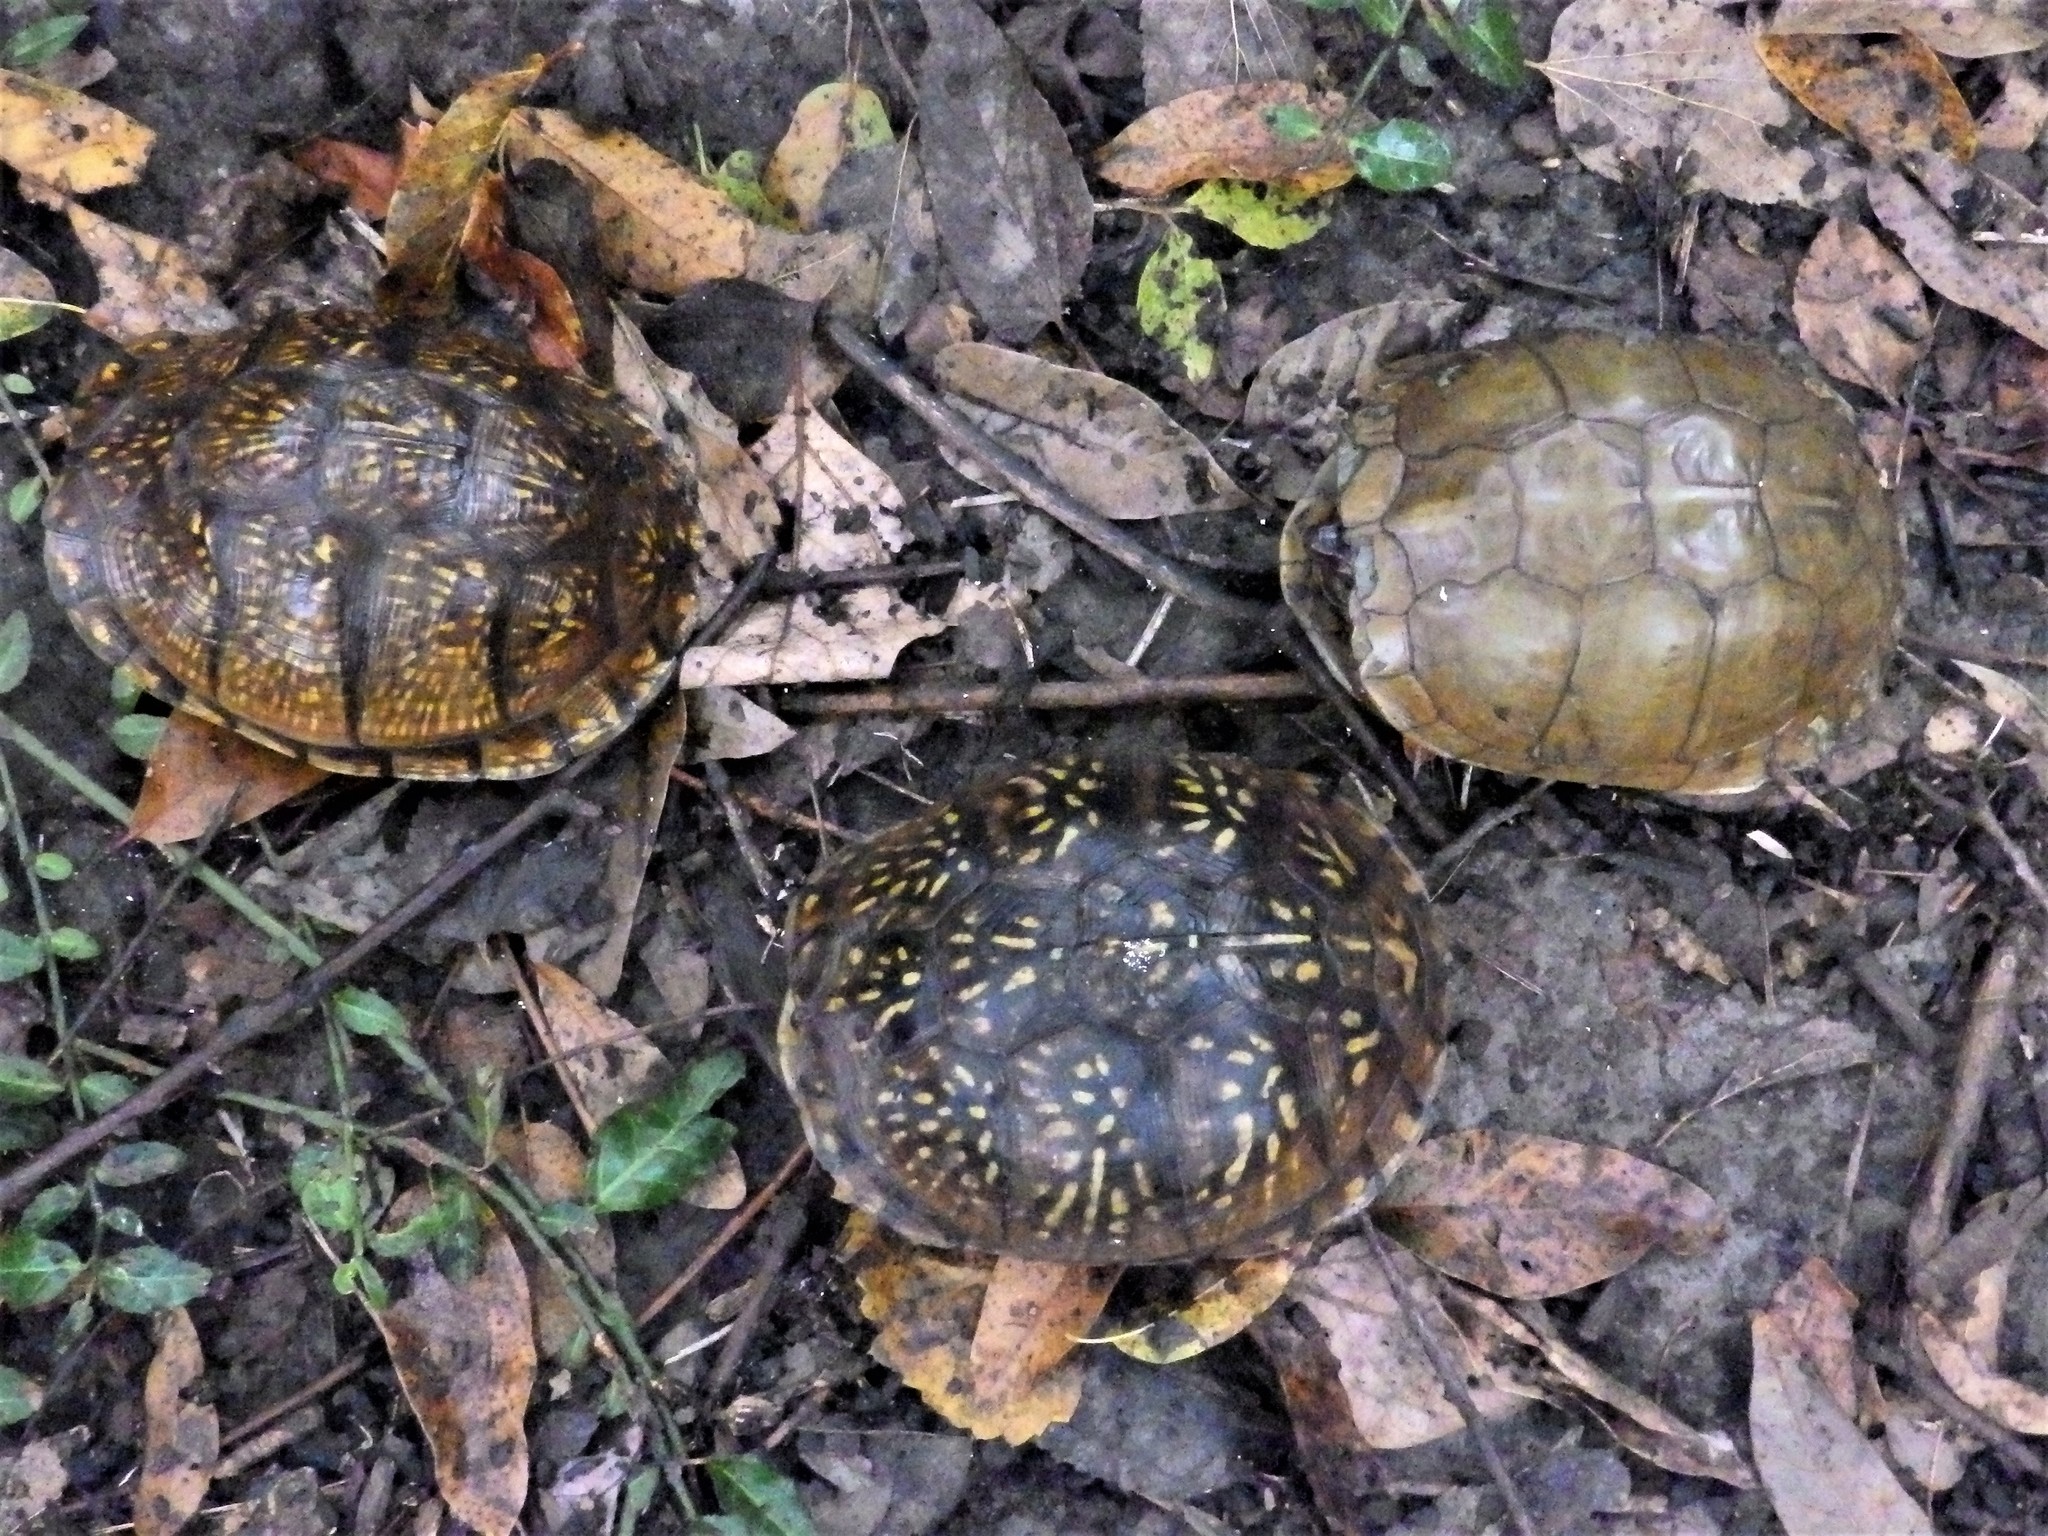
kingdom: Animalia
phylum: Chordata
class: Testudines
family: Emydidae
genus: Terrapene
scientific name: Terrapene carolina
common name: Common box turtle
